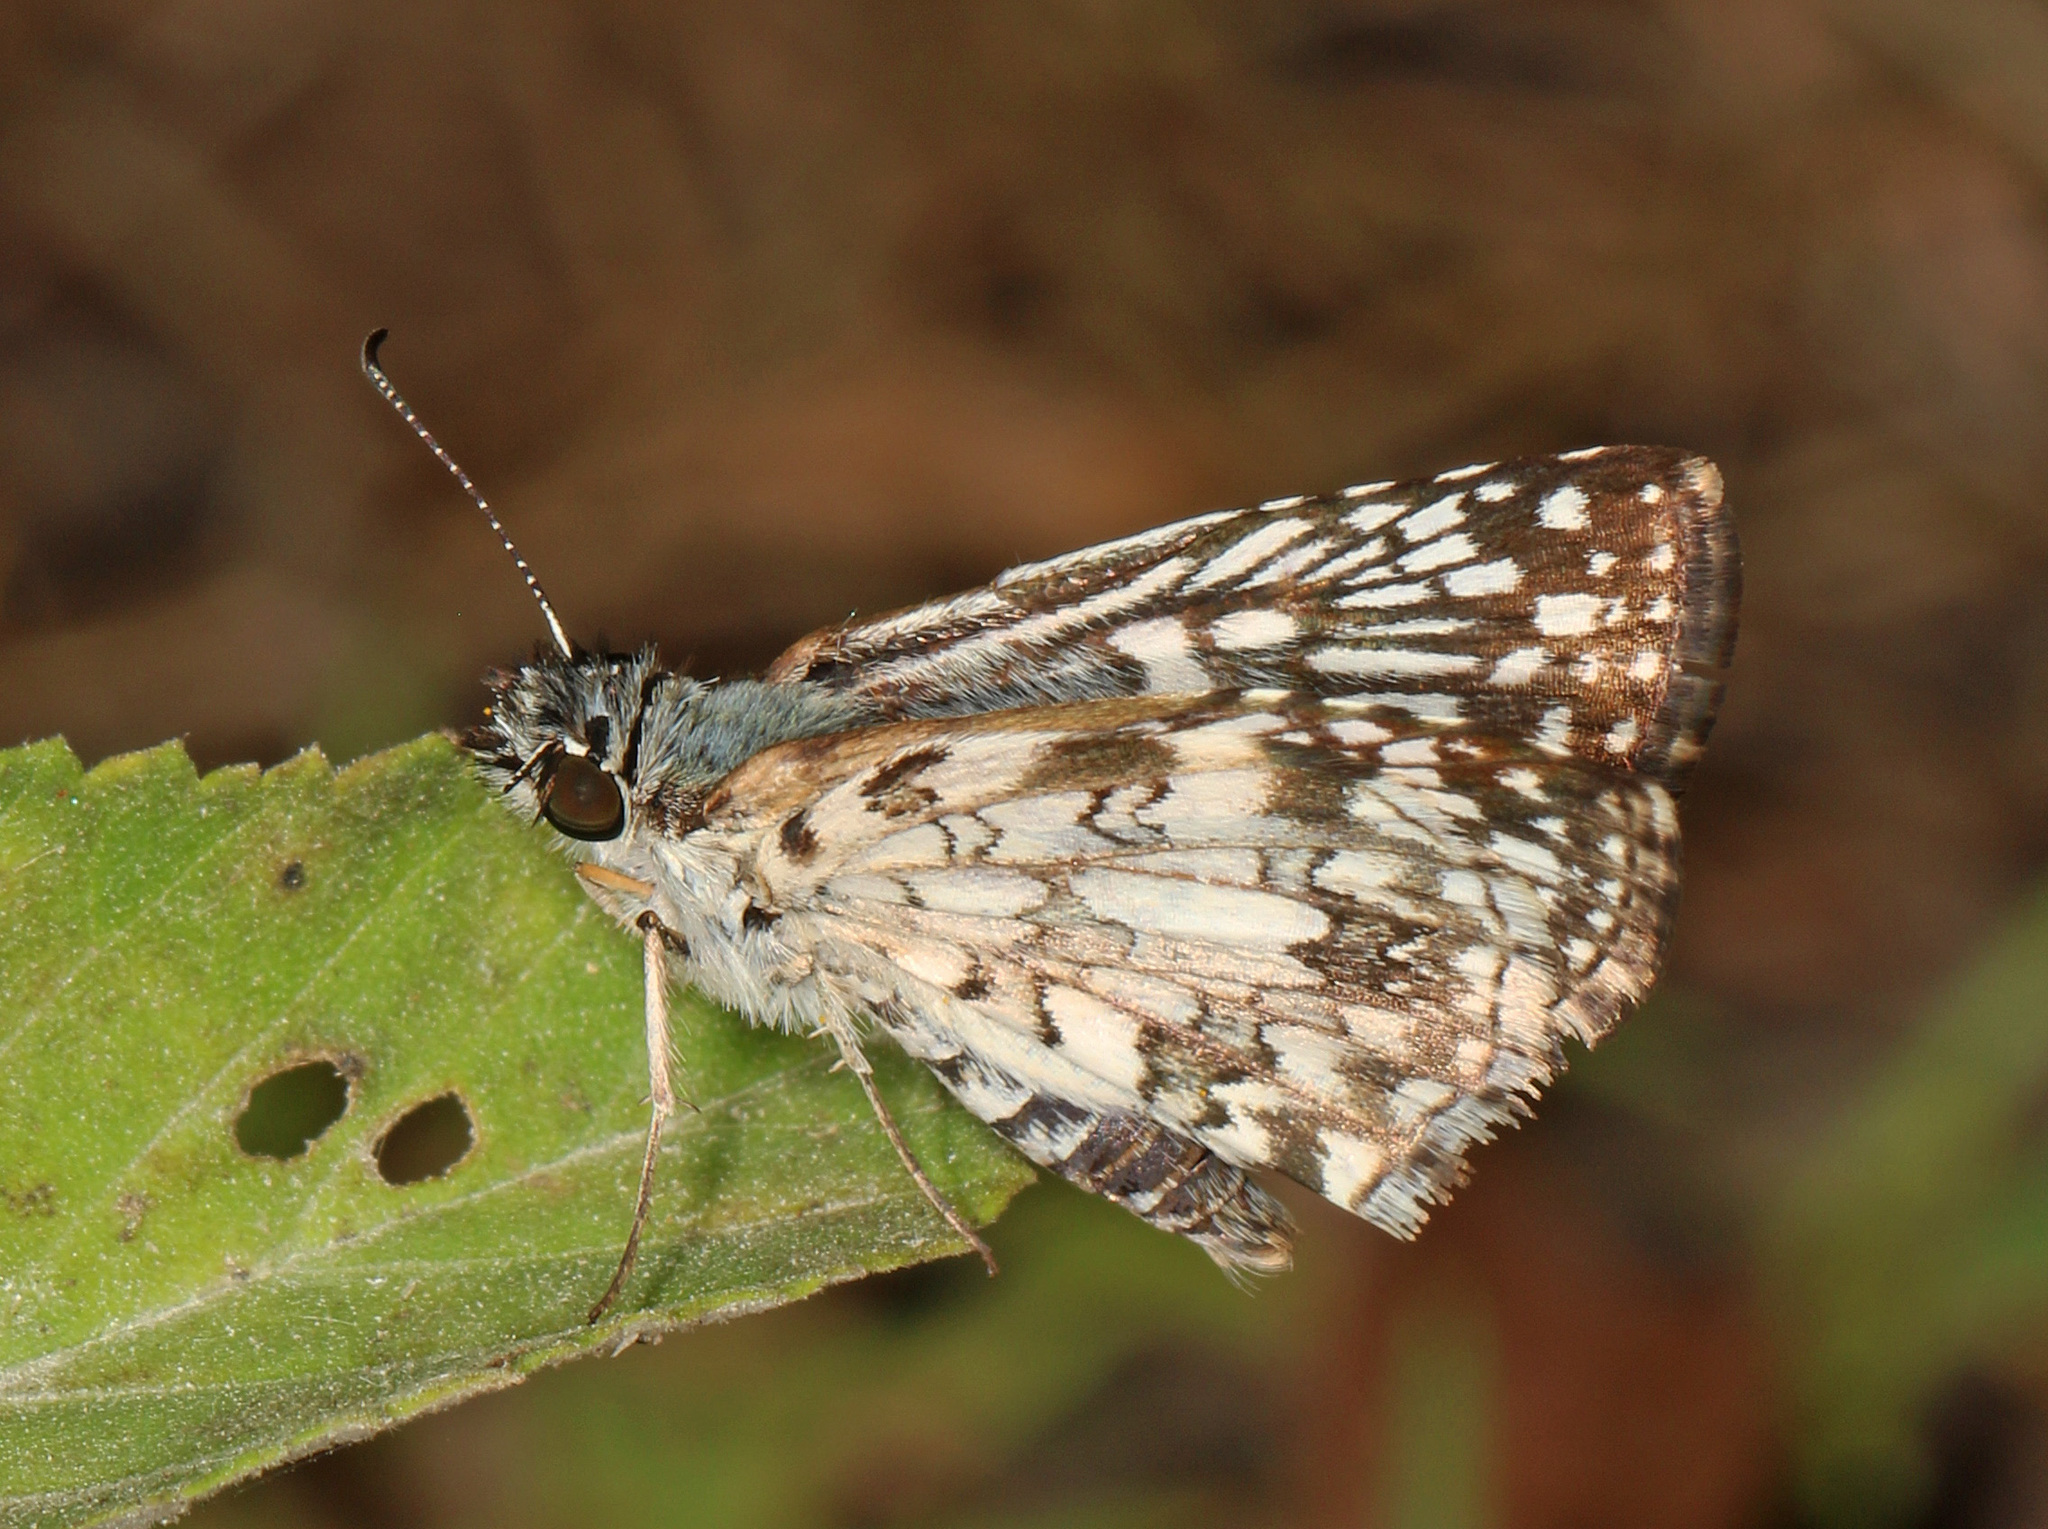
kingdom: Animalia
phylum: Arthropoda
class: Insecta
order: Lepidoptera
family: Hesperiidae
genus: Pyrgus
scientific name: Pyrgus oileus
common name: Tropical checkered-skipper
